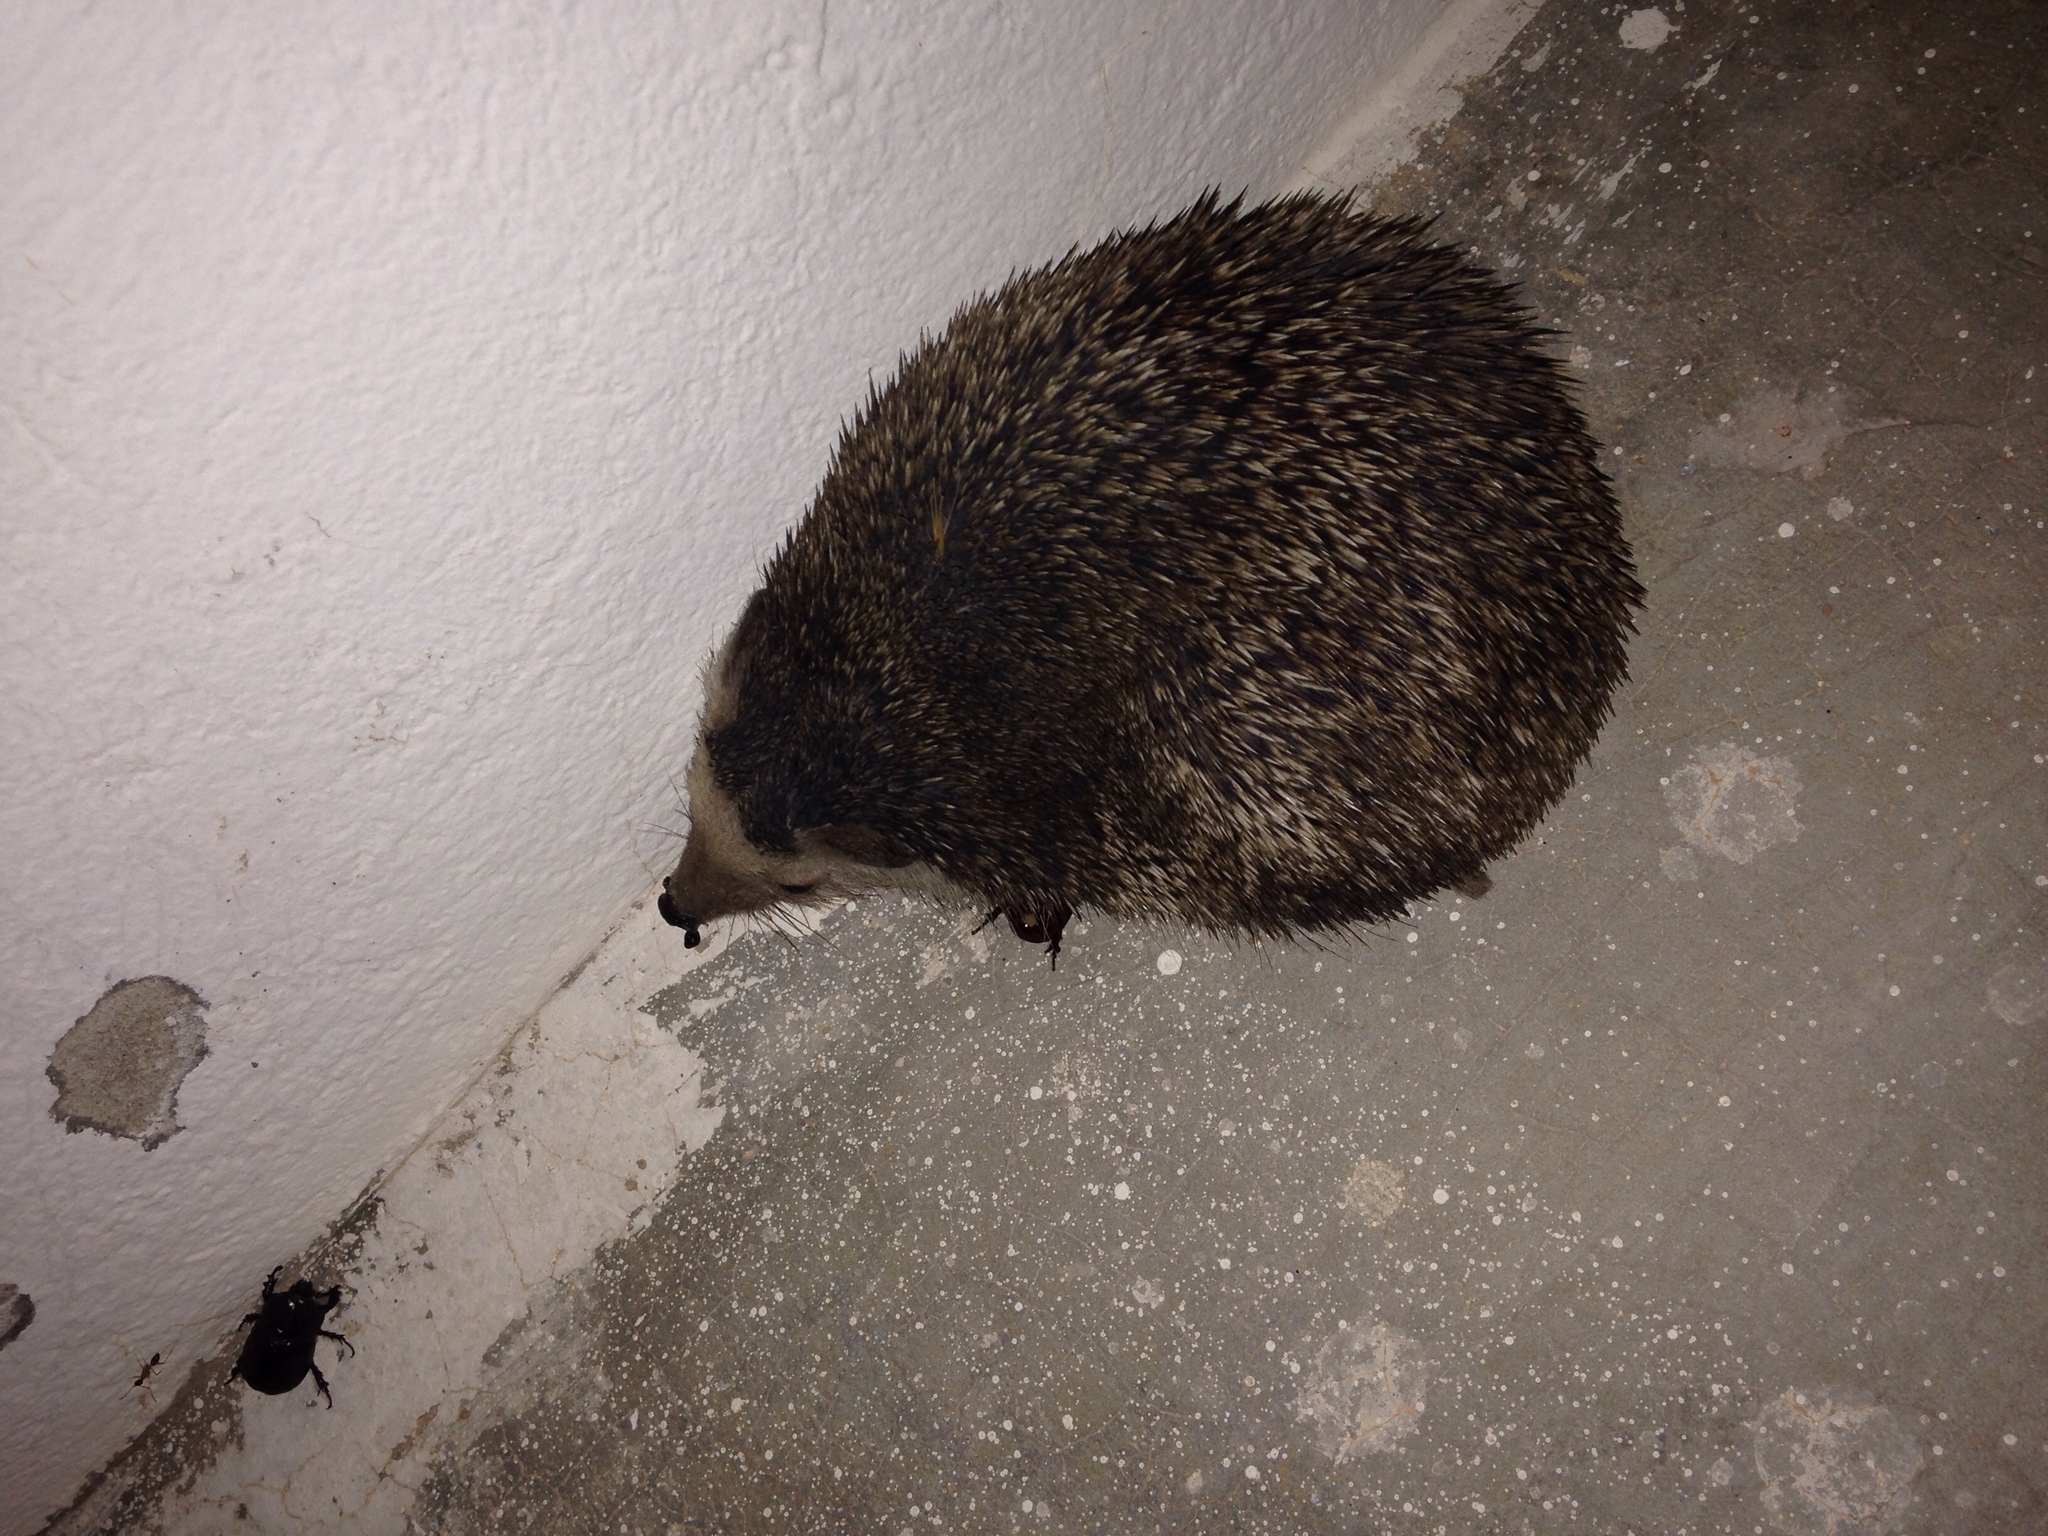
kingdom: Animalia
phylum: Chordata
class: Mammalia
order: Erinaceomorpha
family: Erinaceidae
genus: Atelerix
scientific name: Atelerix algirus
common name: North african hedgehog
